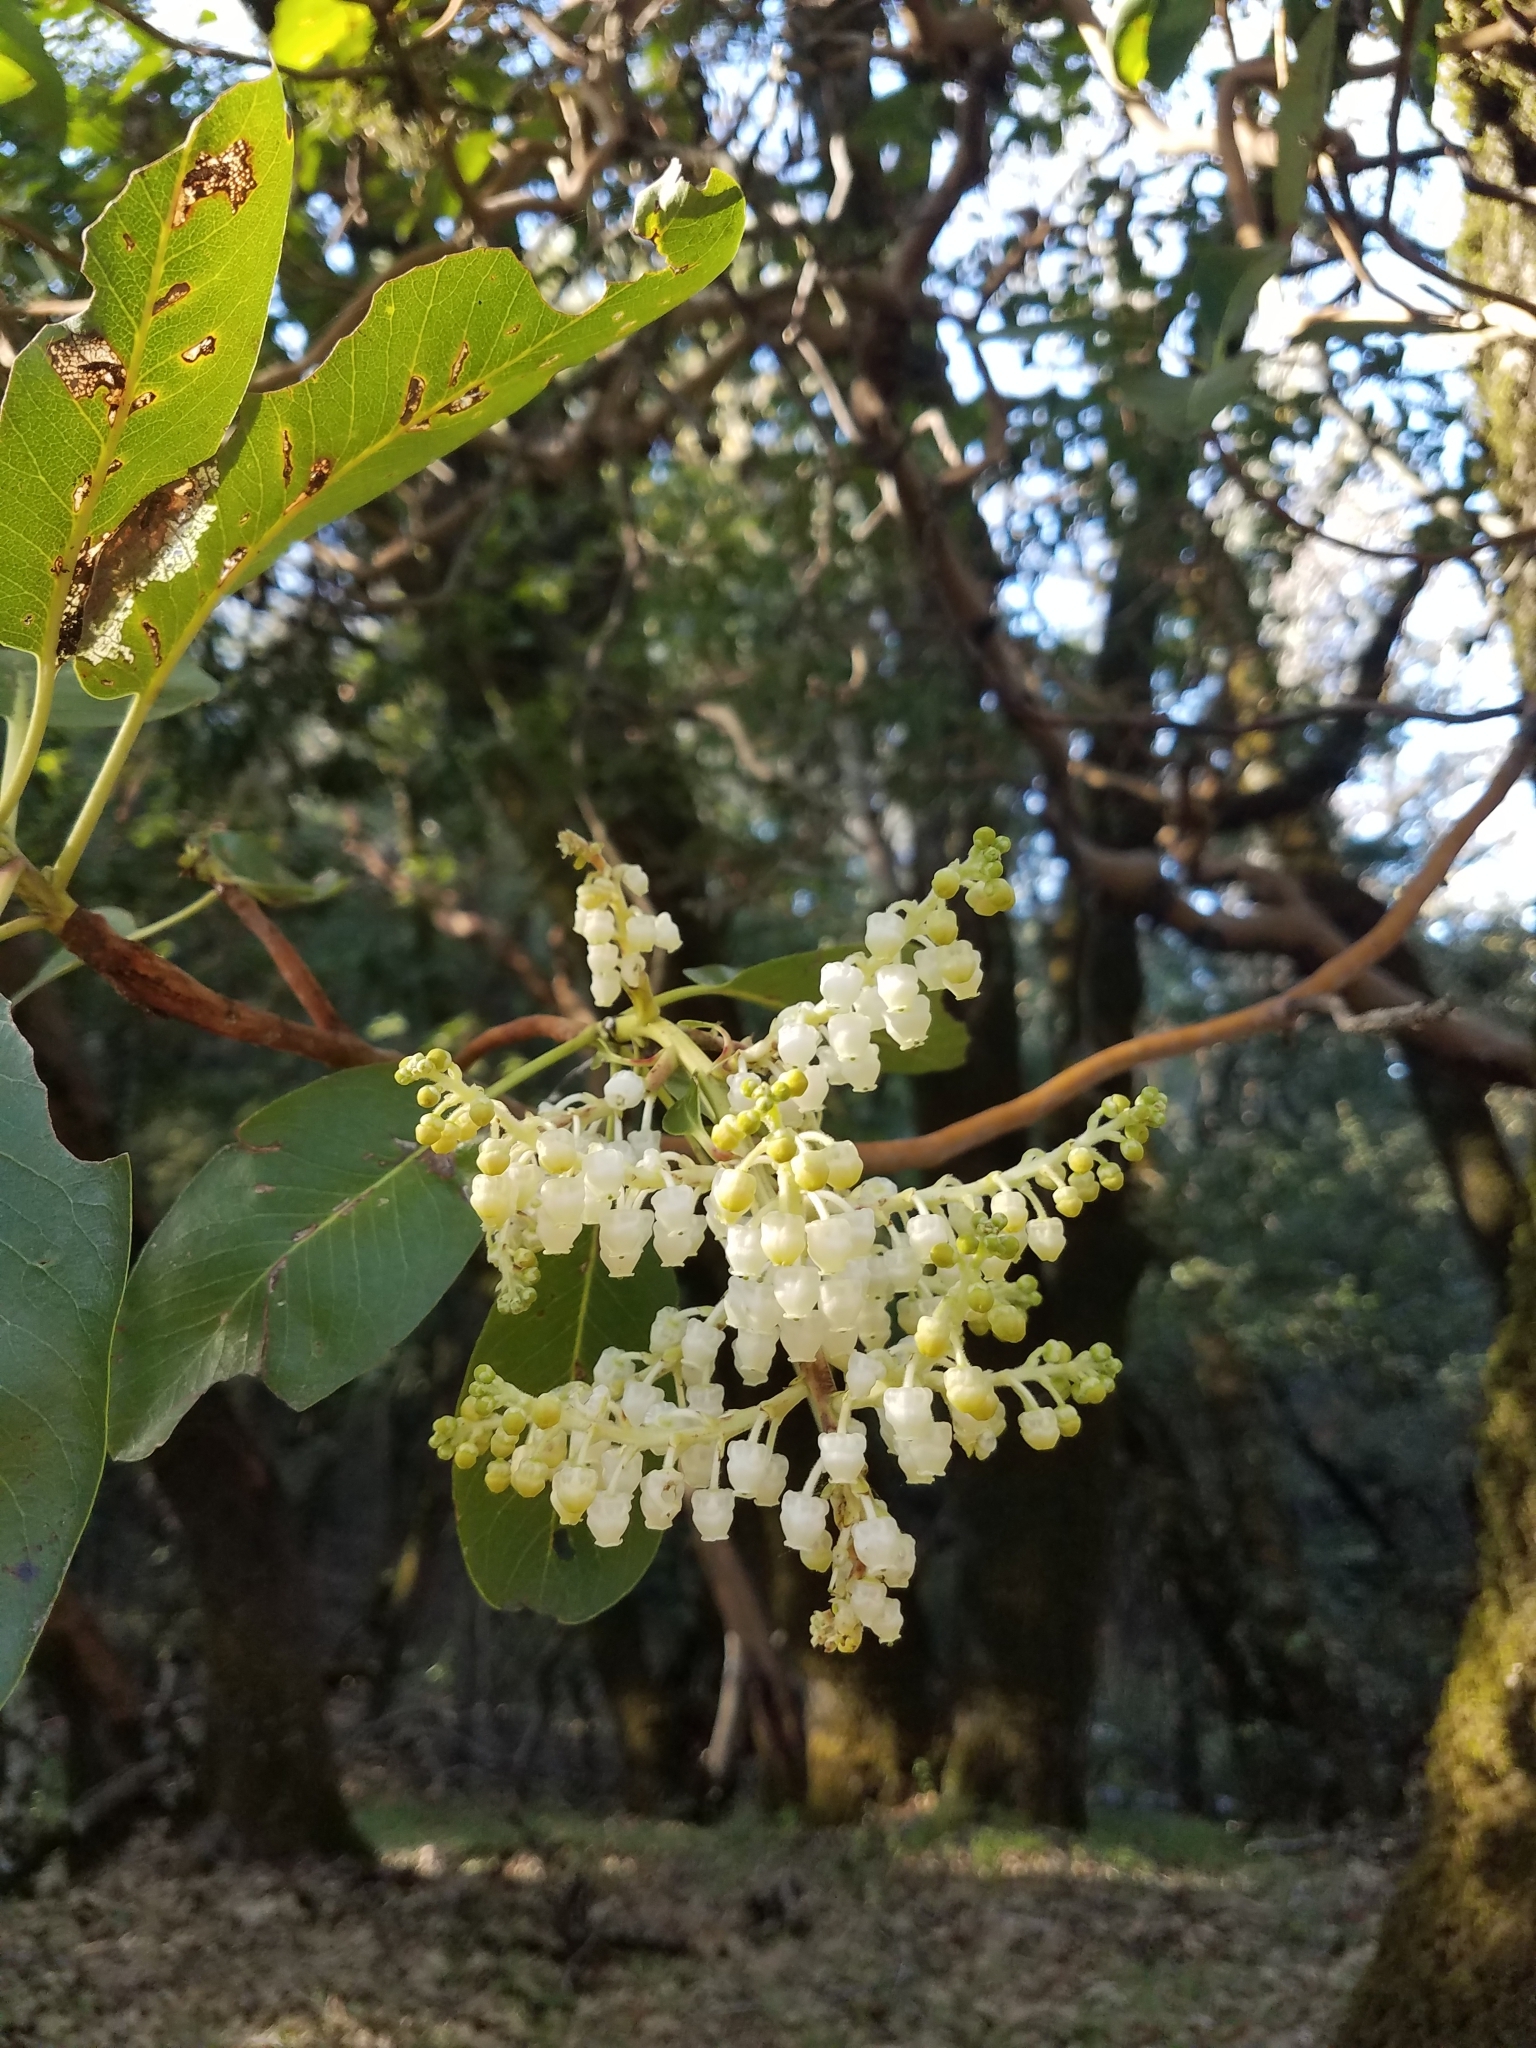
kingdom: Plantae
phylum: Tracheophyta
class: Magnoliopsida
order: Ericales
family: Ericaceae
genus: Arbutus
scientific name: Arbutus menziesii
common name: Pacific madrone
